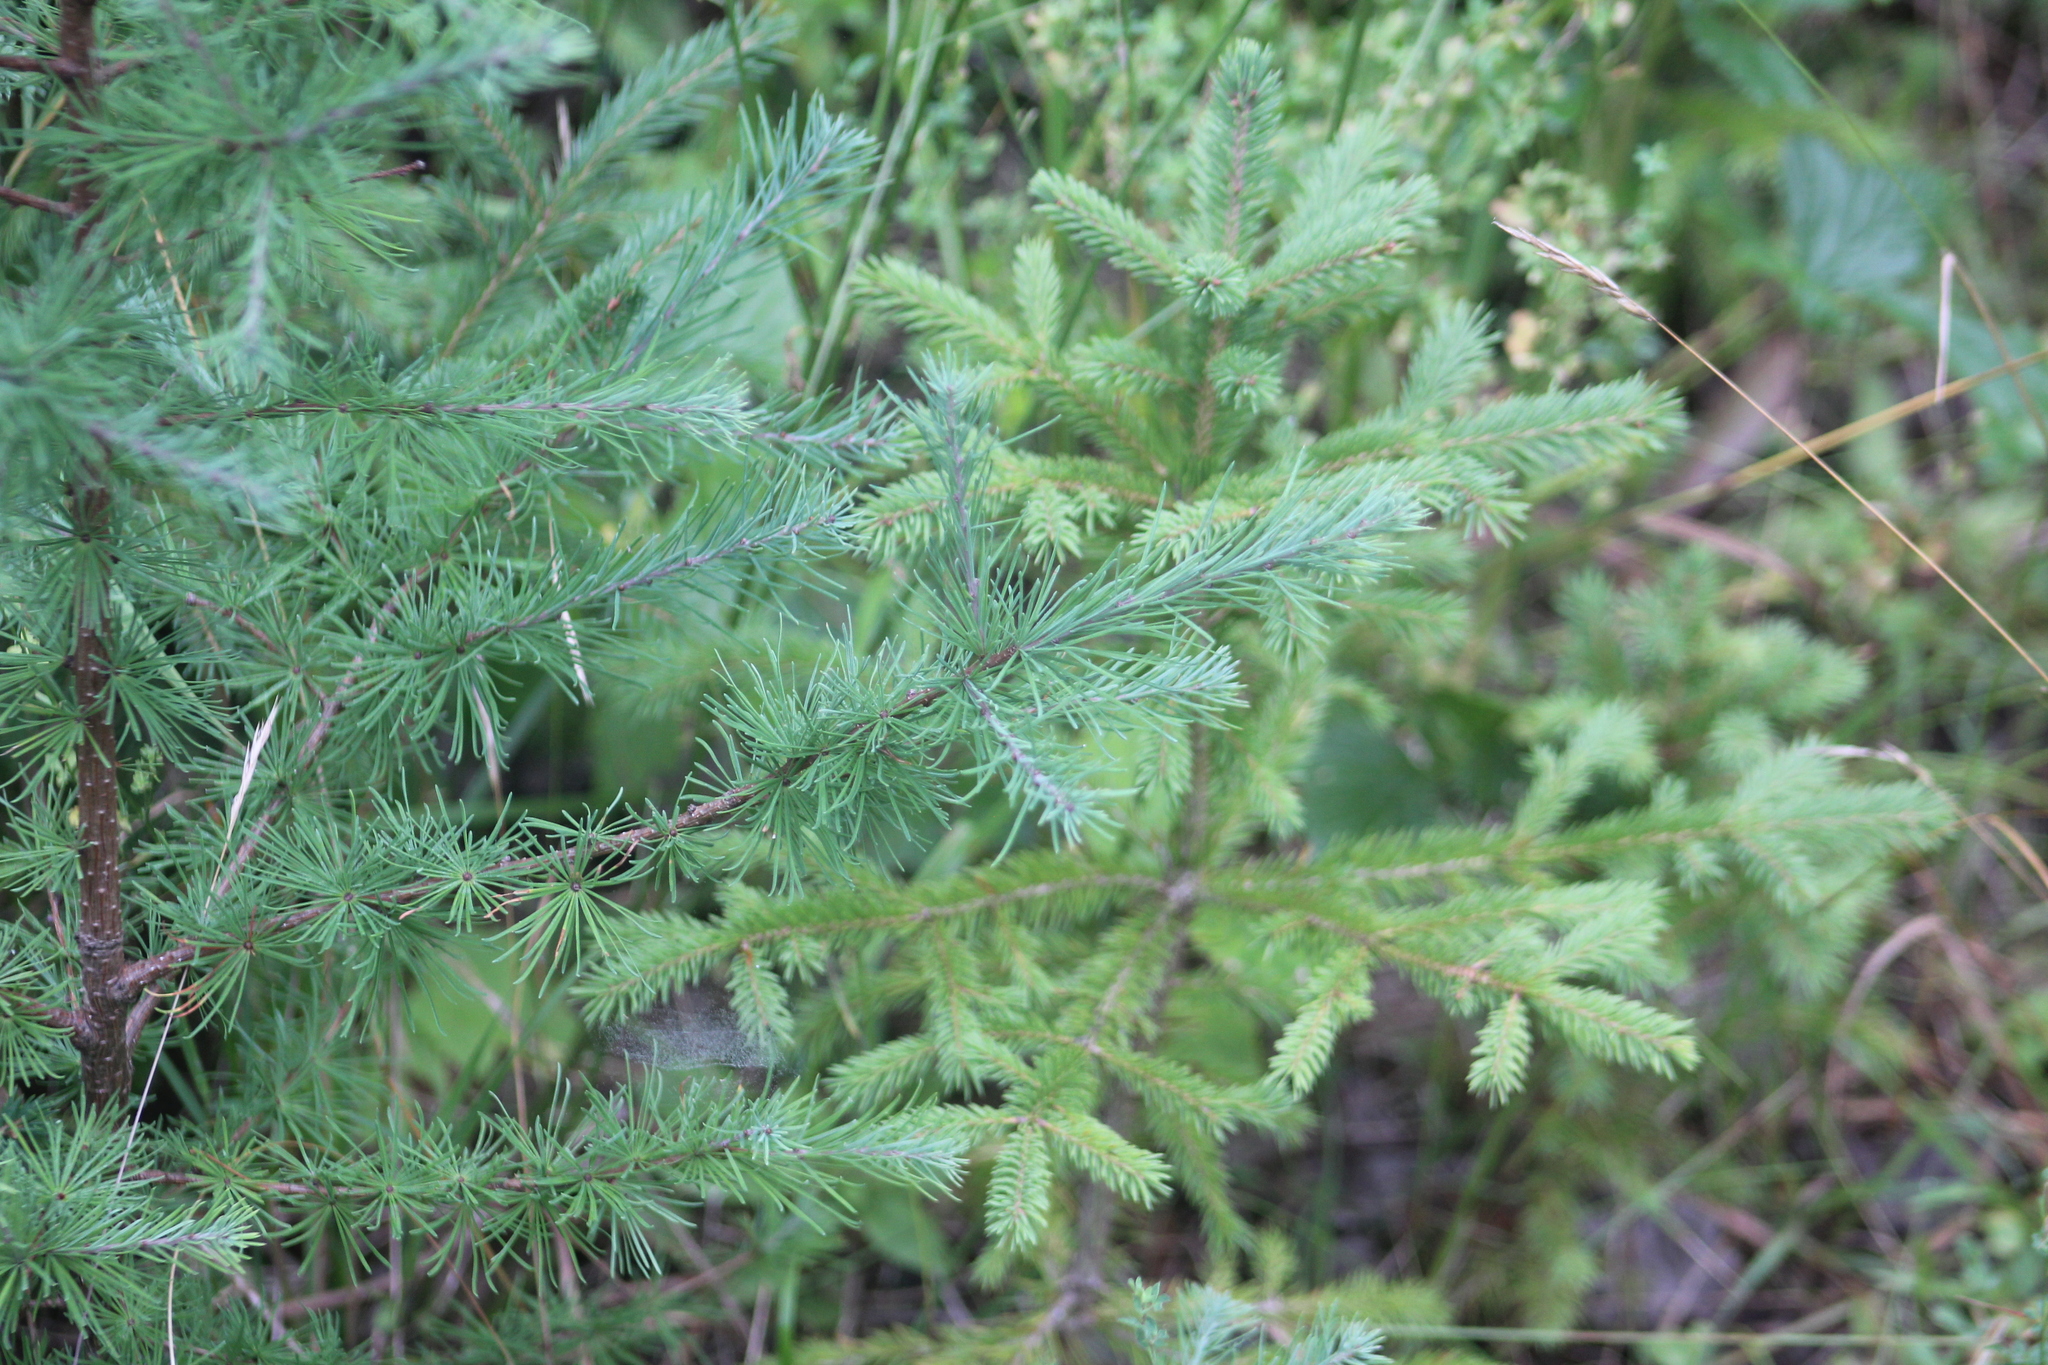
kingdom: Plantae
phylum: Tracheophyta
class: Pinopsida
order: Pinales
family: Pinaceae
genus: Larix
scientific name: Larix laricina
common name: American larch
